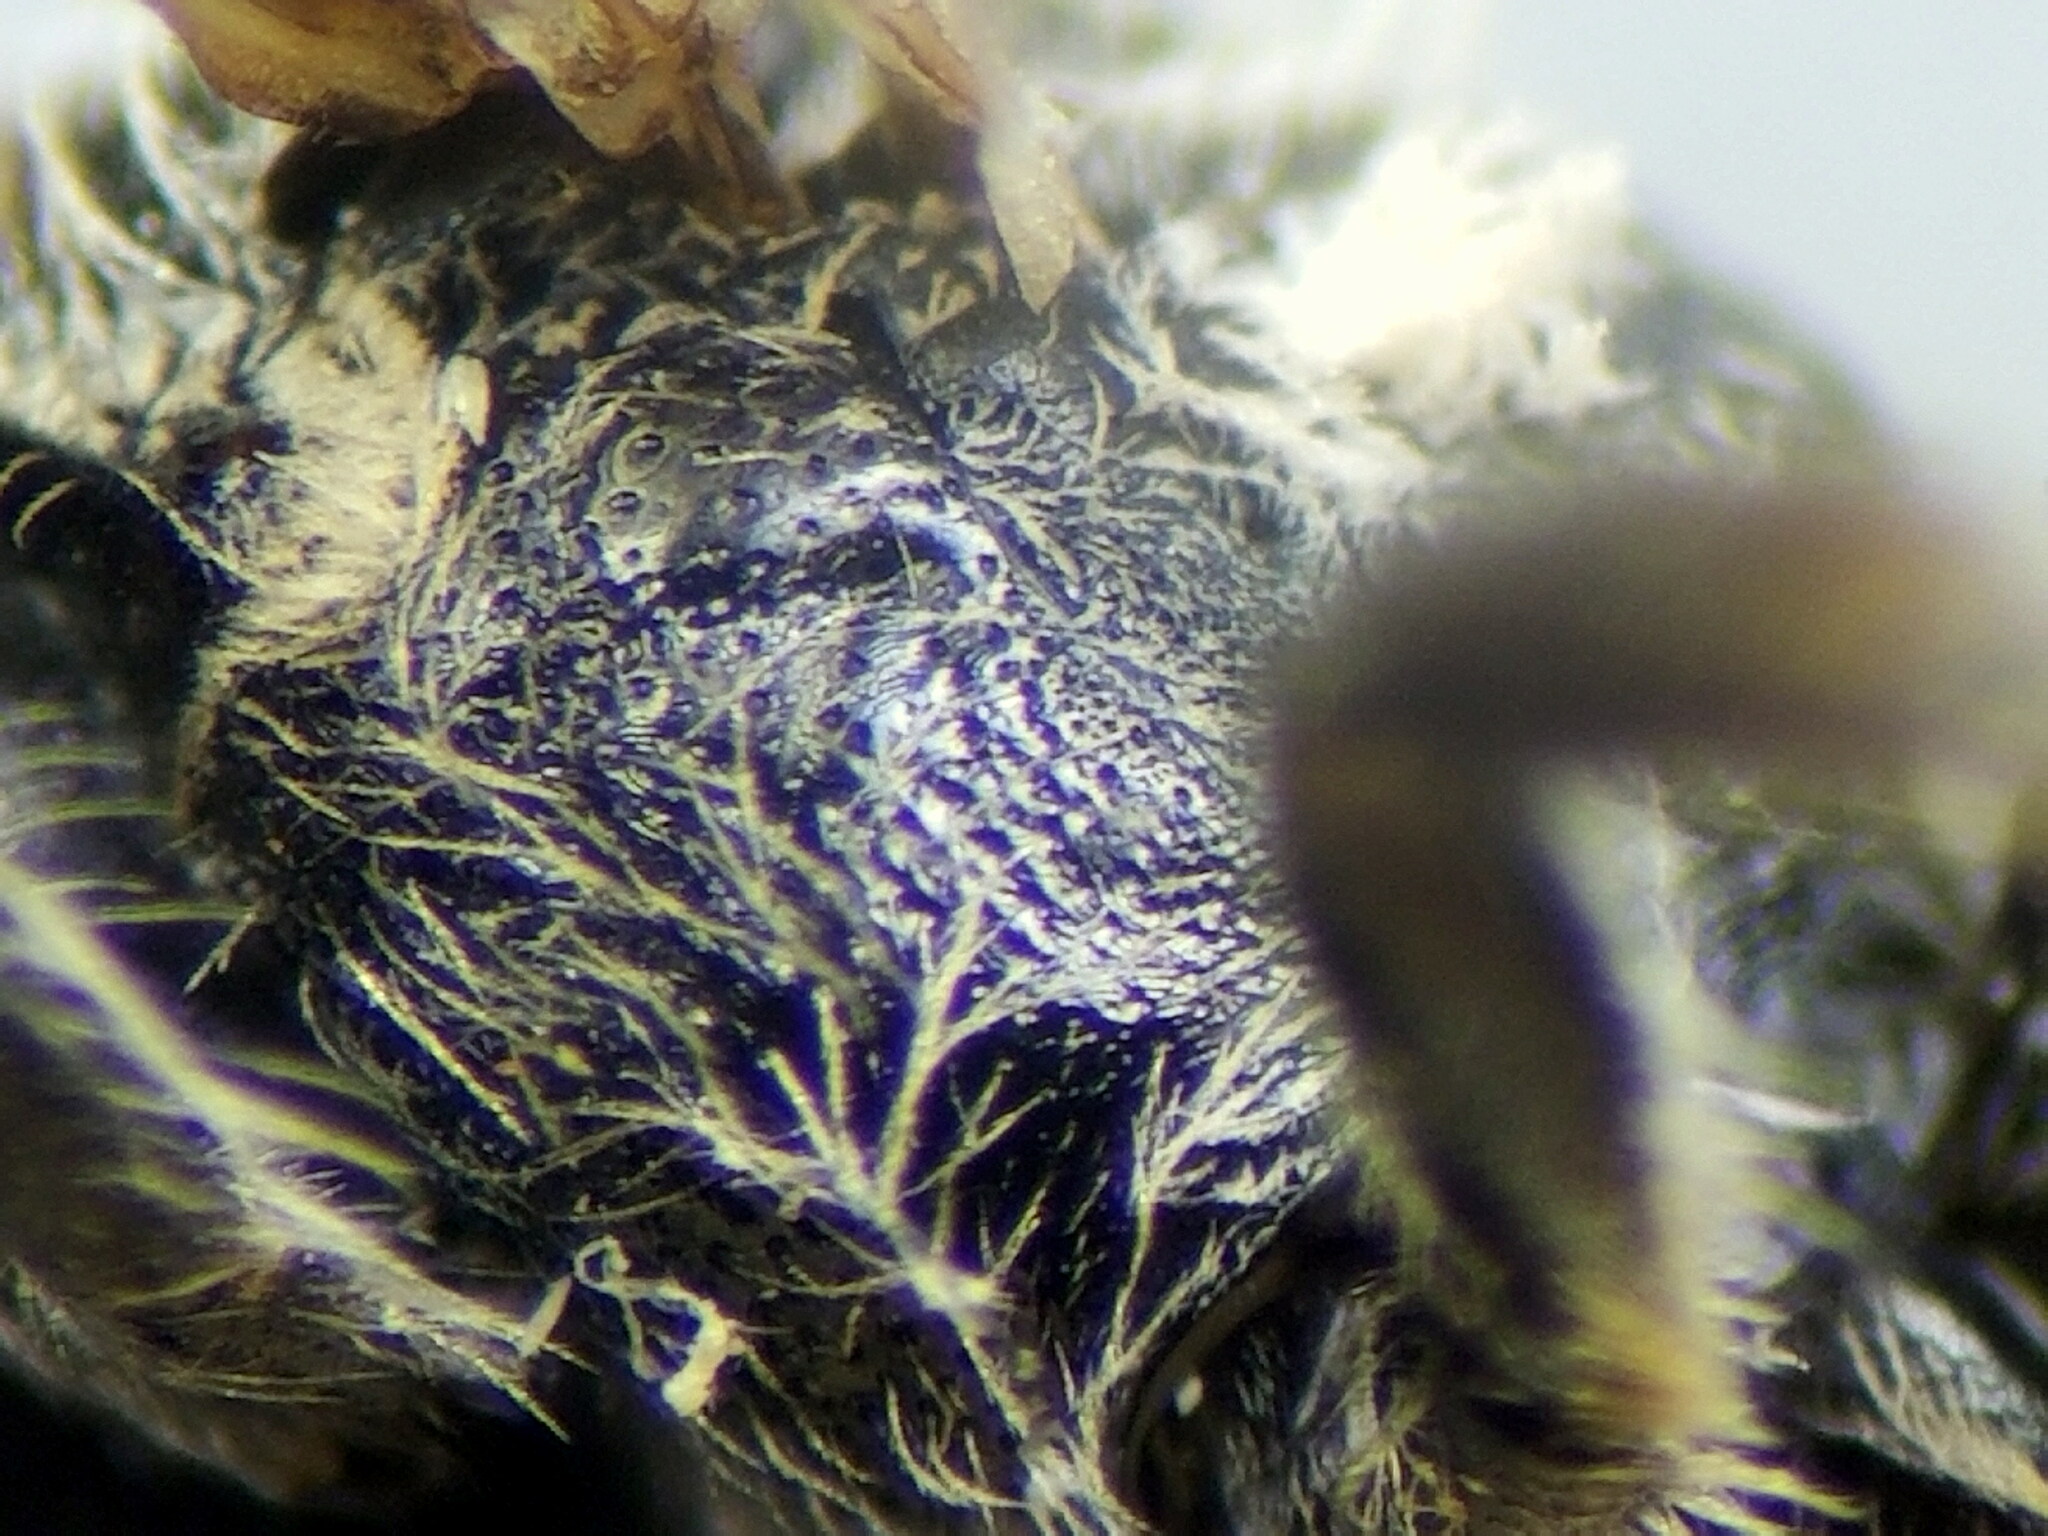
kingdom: Animalia
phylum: Arthropoda
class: Insecta
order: Hymenoptera
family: Halictidae
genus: Lasioglossum
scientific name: Lasioglossum clypeare
